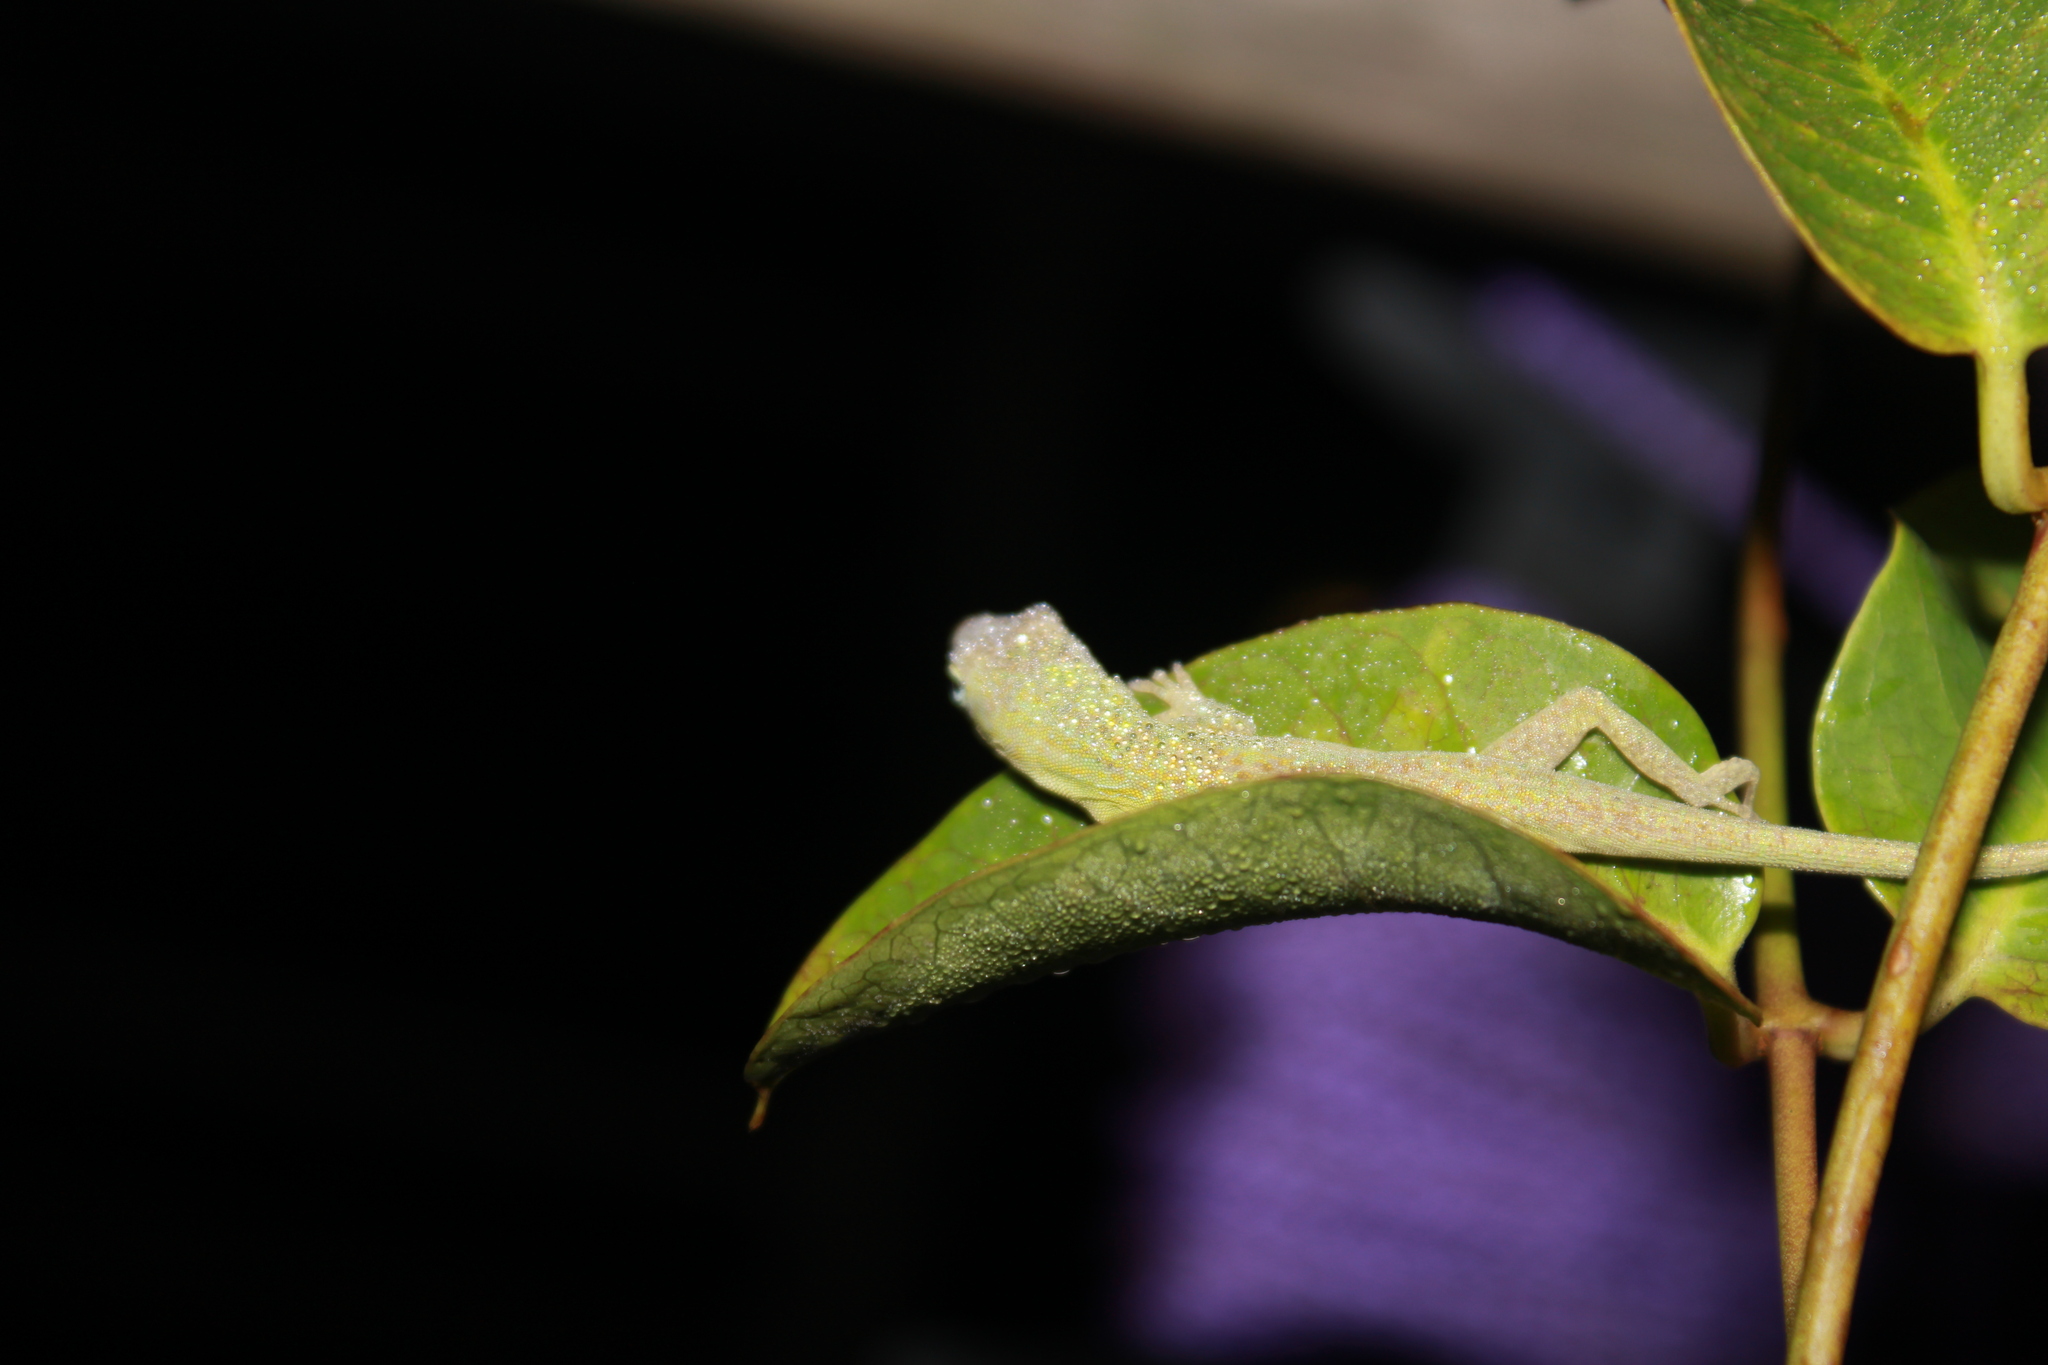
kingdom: Animalia
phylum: Chordata
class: Squamata
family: Dactyloidae
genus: Anolis
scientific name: Anolis carolinensis
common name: Green anole
